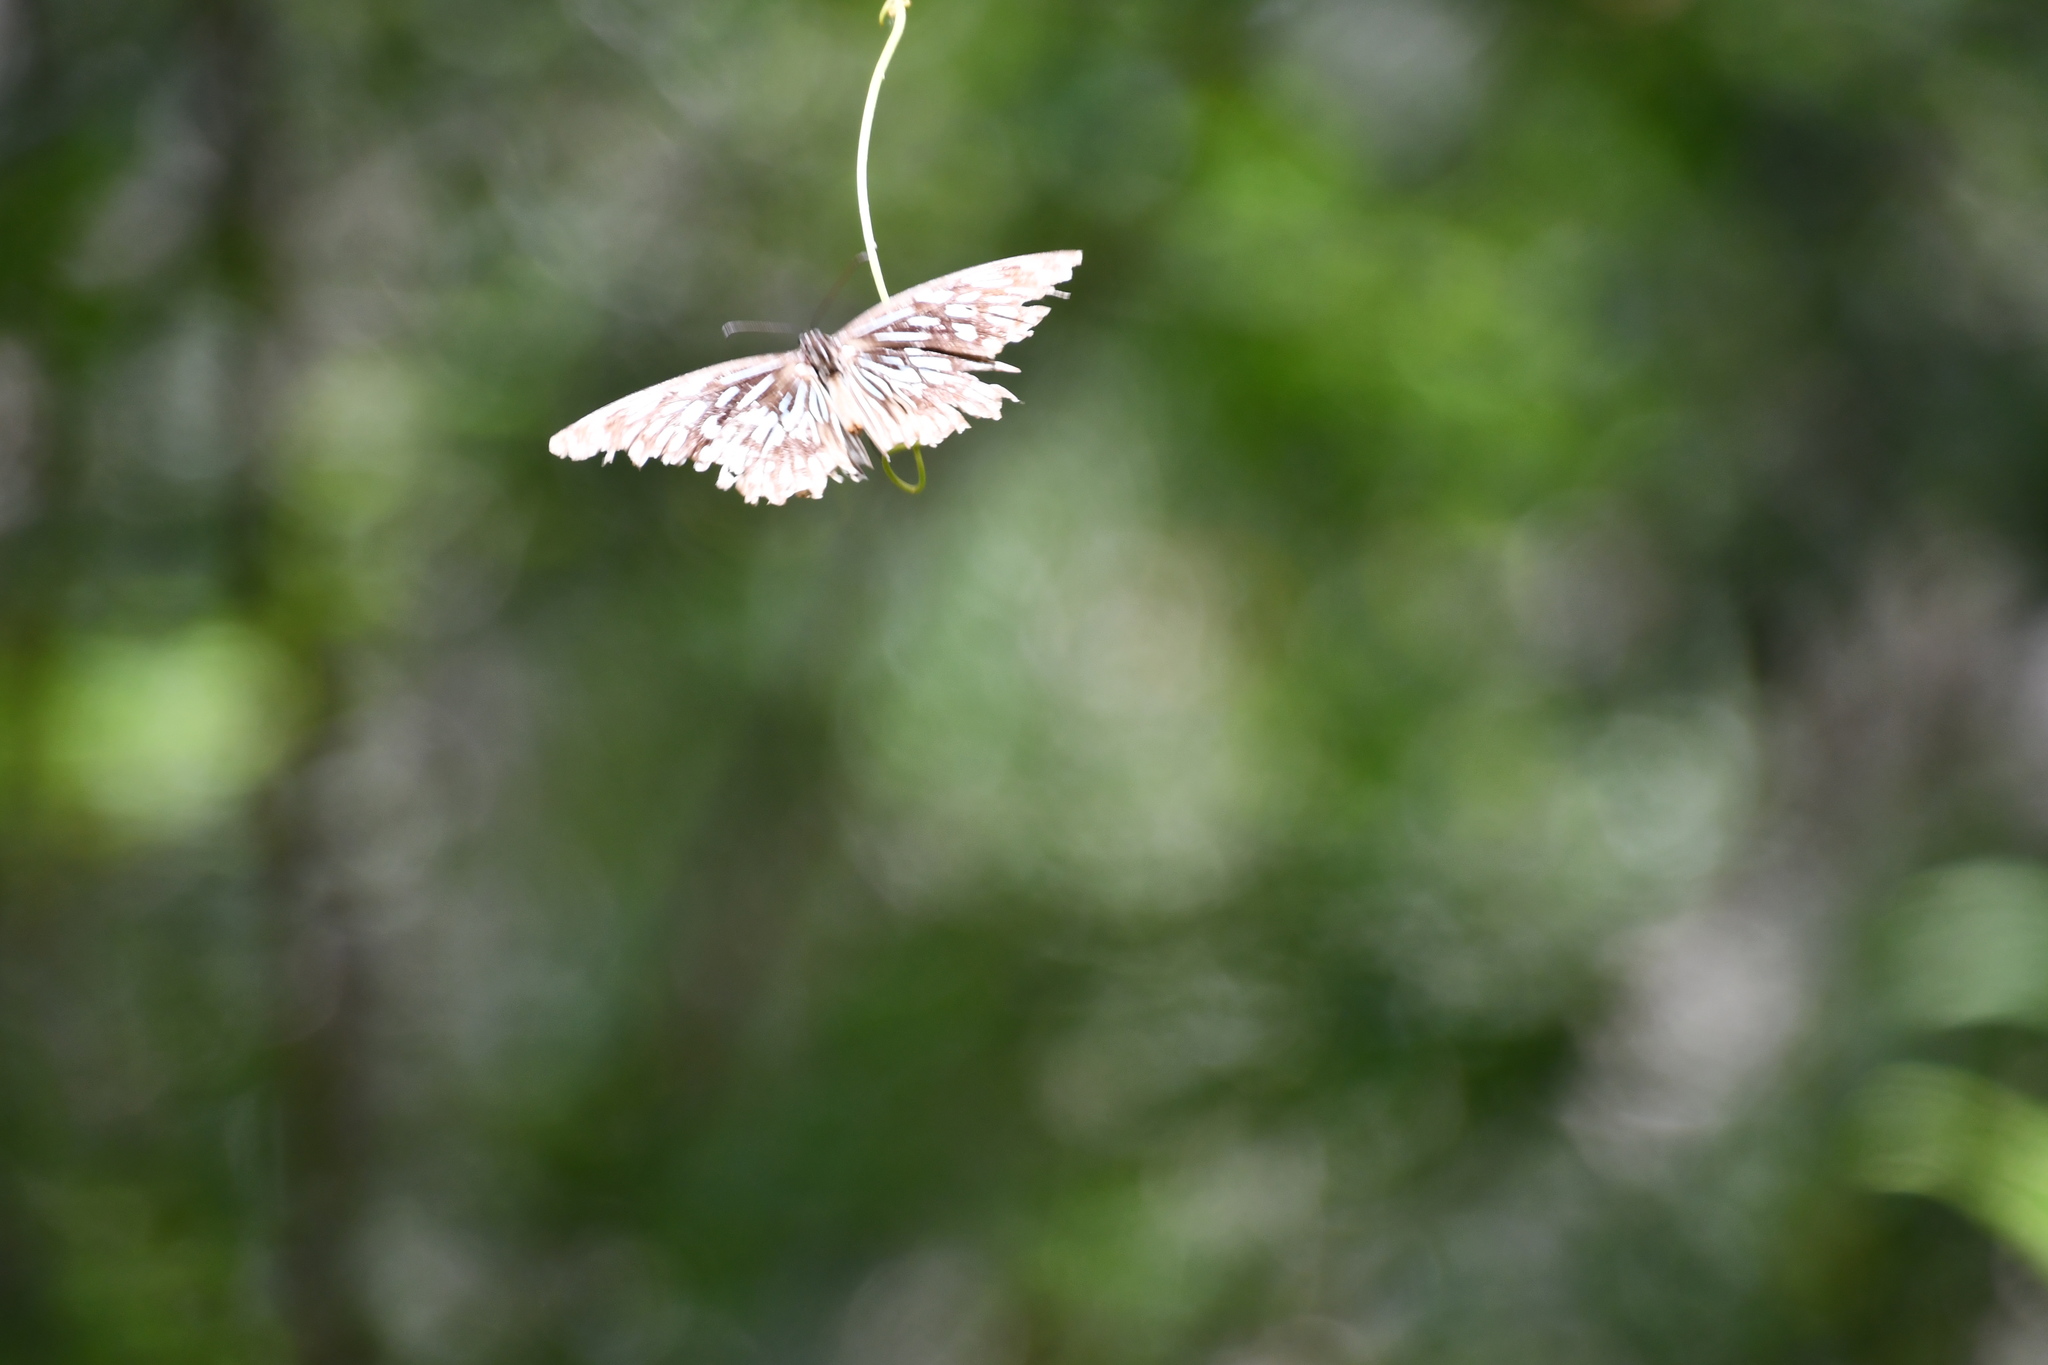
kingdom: Animalia
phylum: Arthropoda
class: Insecta
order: Lepidoptera
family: Nymphalidae
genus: Tirumala
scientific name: Tirumala hamata
